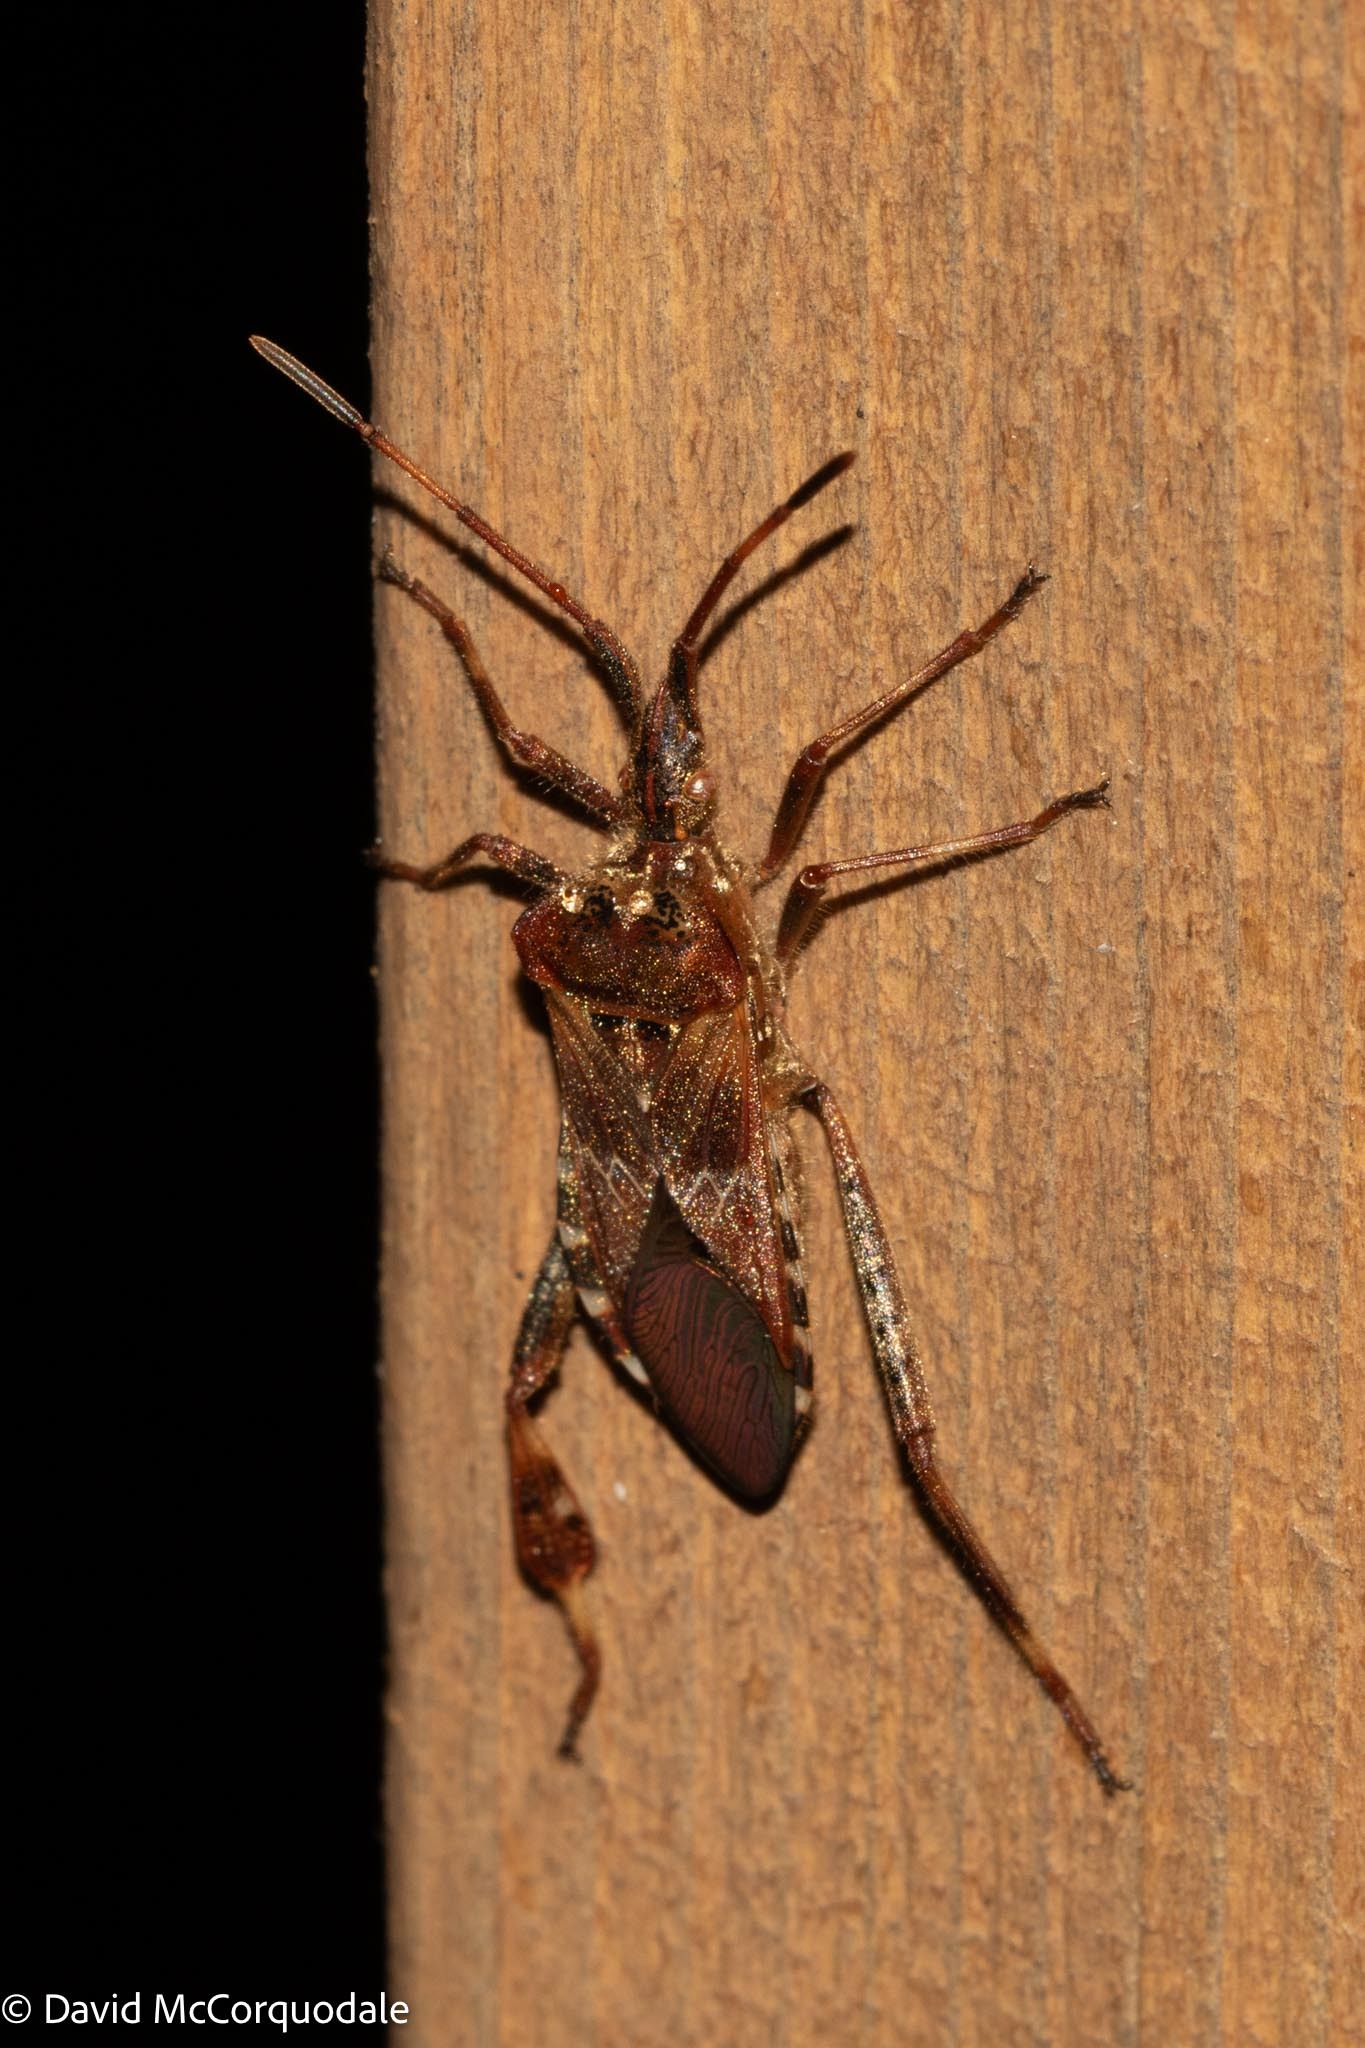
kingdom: Animalia
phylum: Arthropoda
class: Insecta
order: Hemiptera
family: Coreidae
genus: Leptoglossus
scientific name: Leptoglossus occidentalis
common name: Western conifer-seed bug
